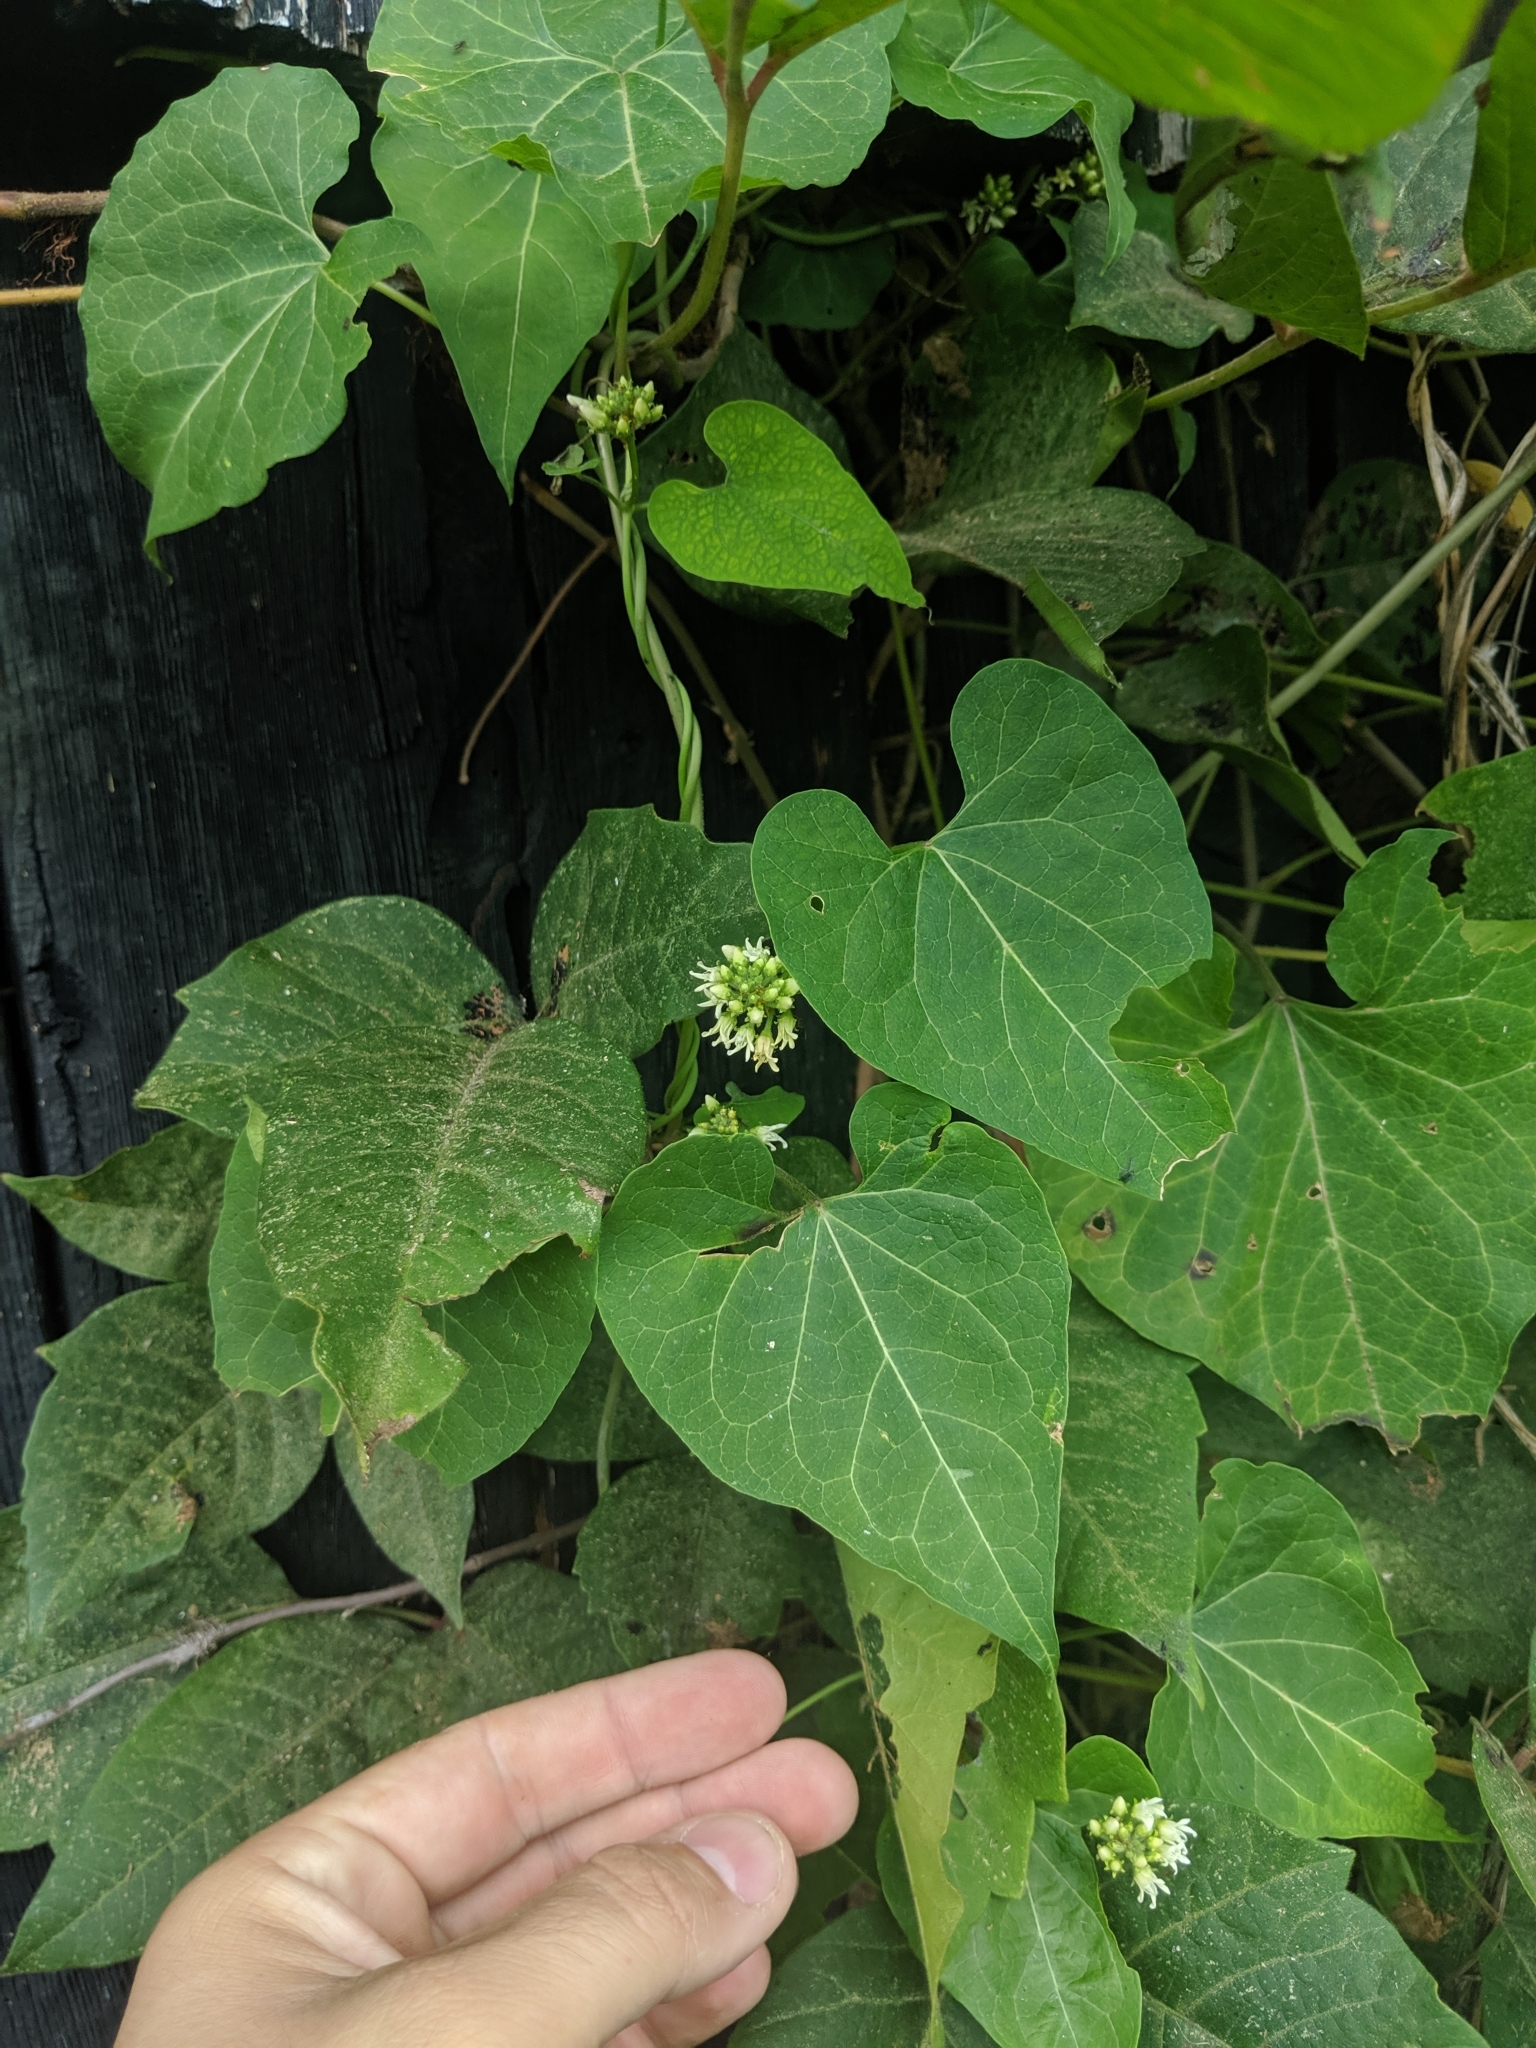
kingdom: Plantae
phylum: Tracheophyta
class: Magnoliopsida
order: Gentianales
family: Apocynaceae
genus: Cynanchum
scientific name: Cynanchum laeve
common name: Sandvine
